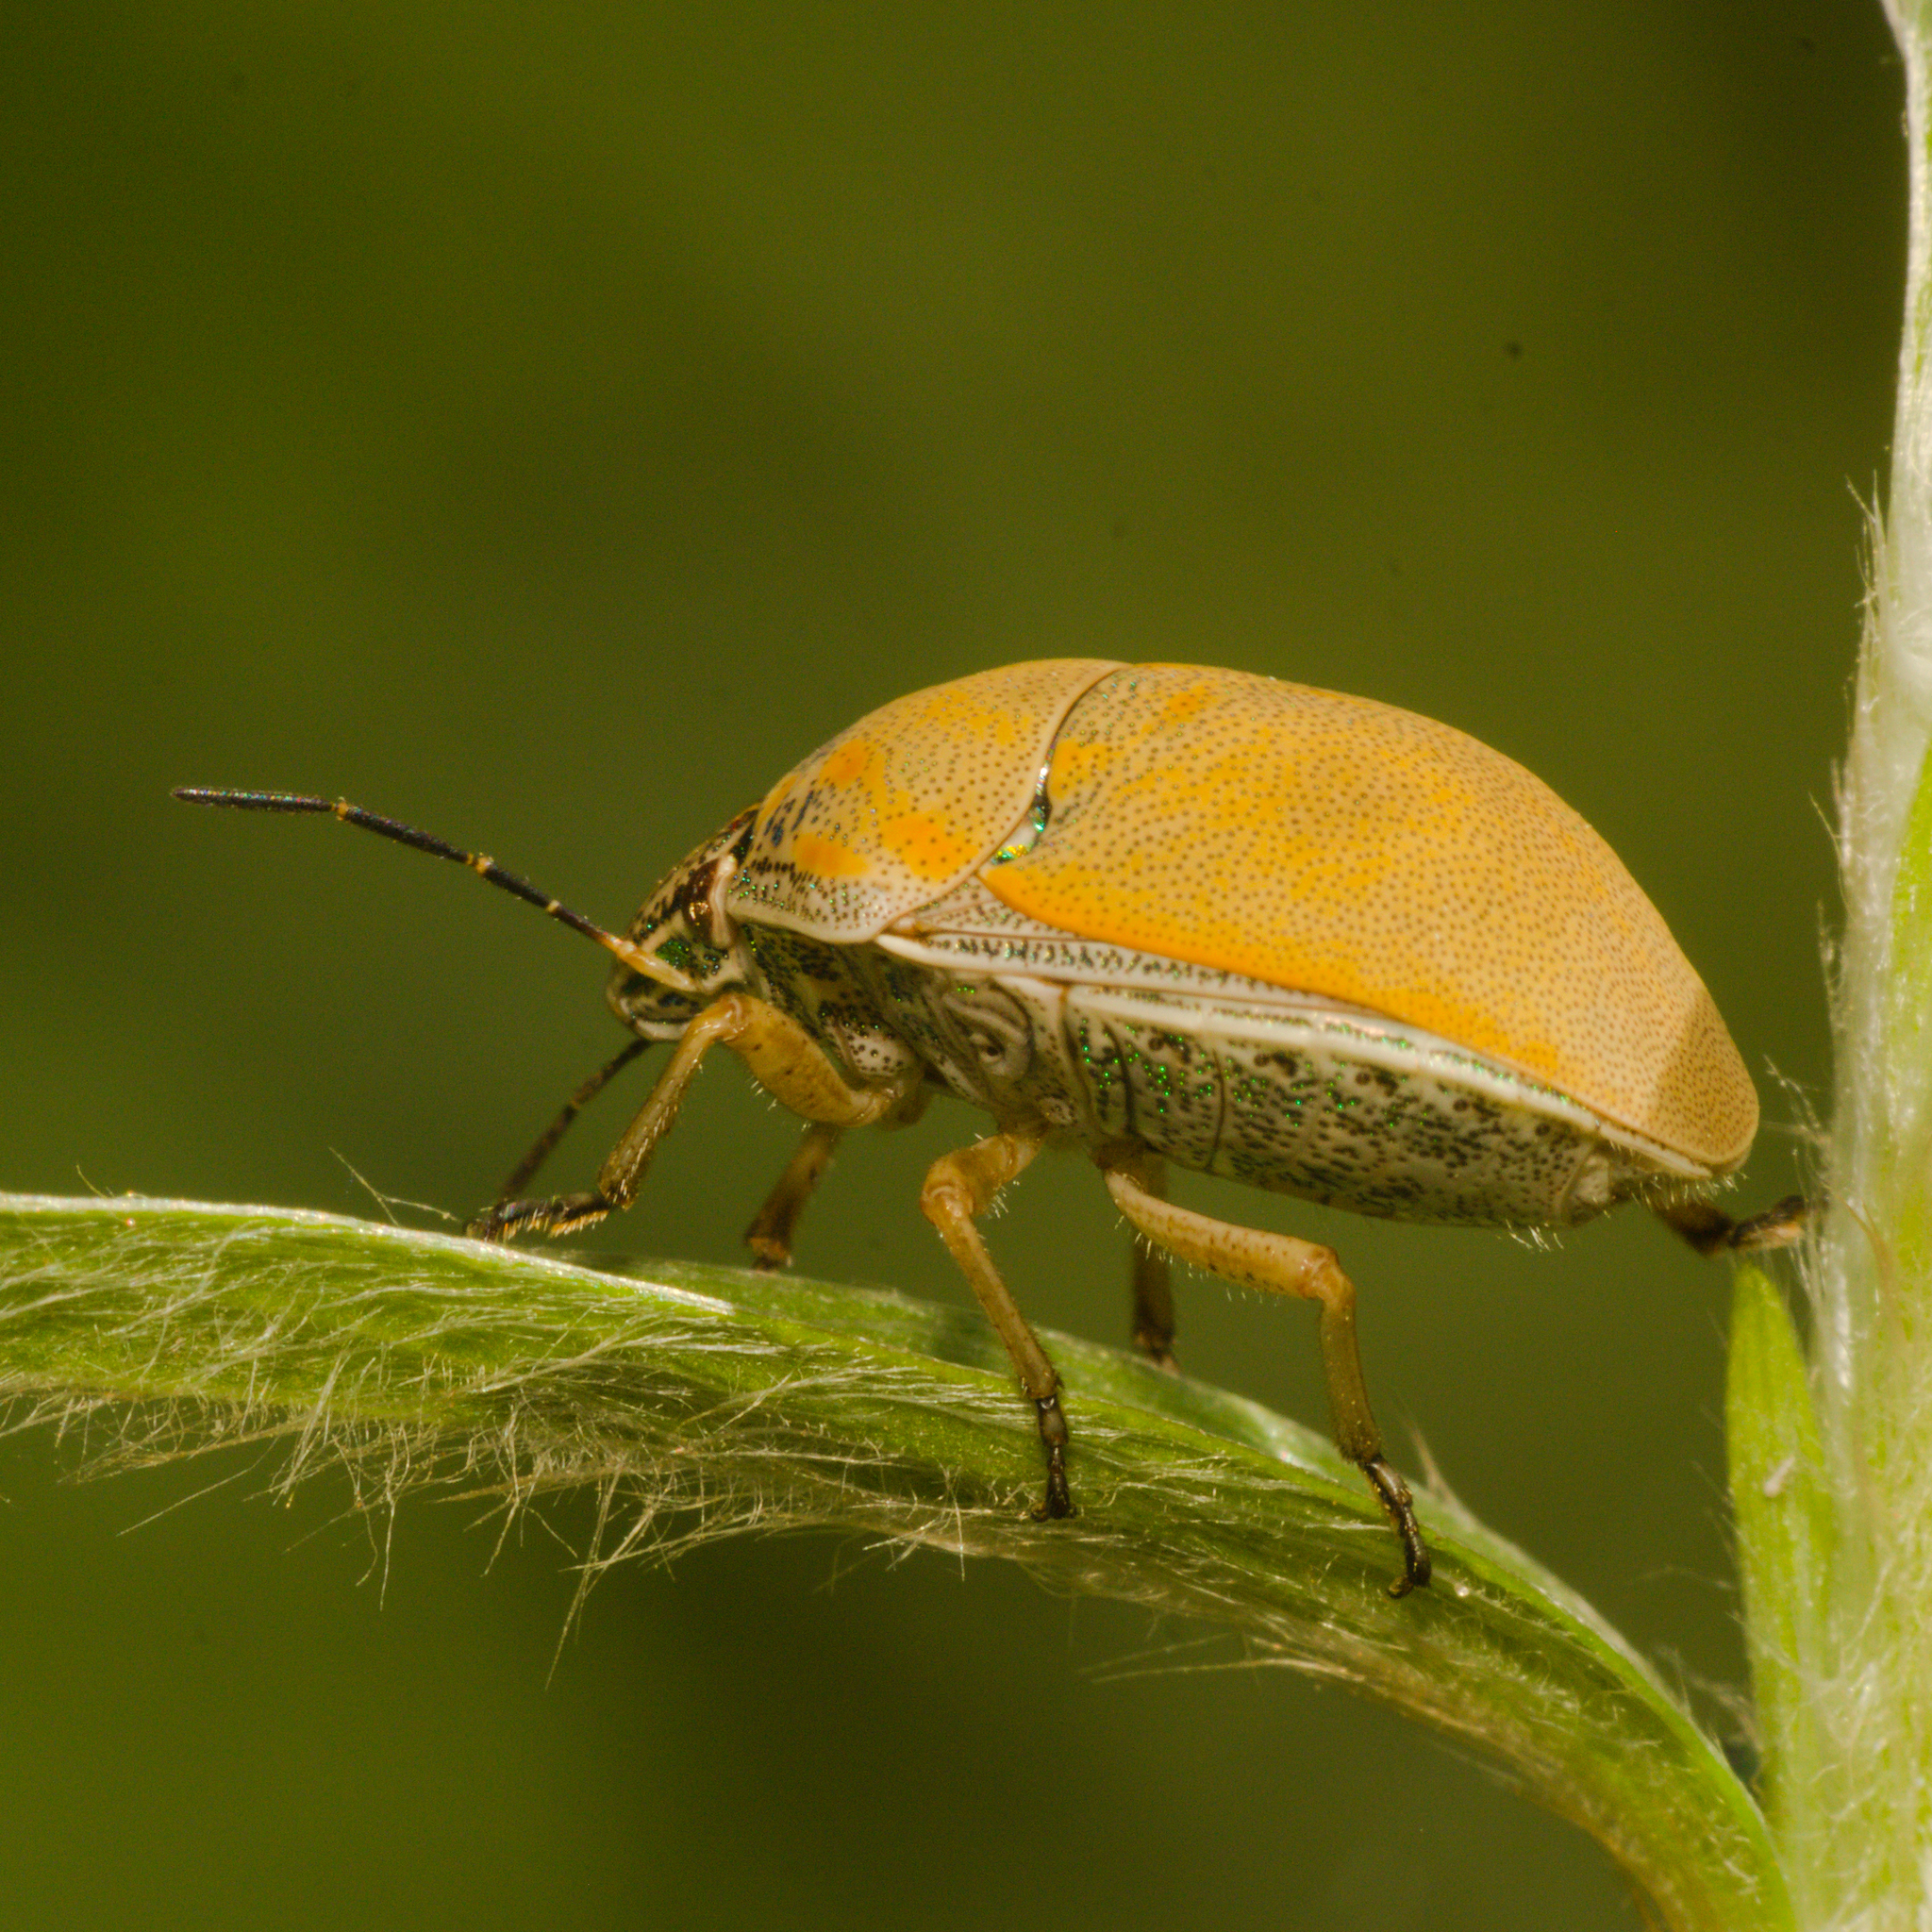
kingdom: Animalia
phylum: Arthropoda
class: Insecta
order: Hemiptera
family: Scutelleridae
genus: Orsilochides
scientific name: Orsilochides
